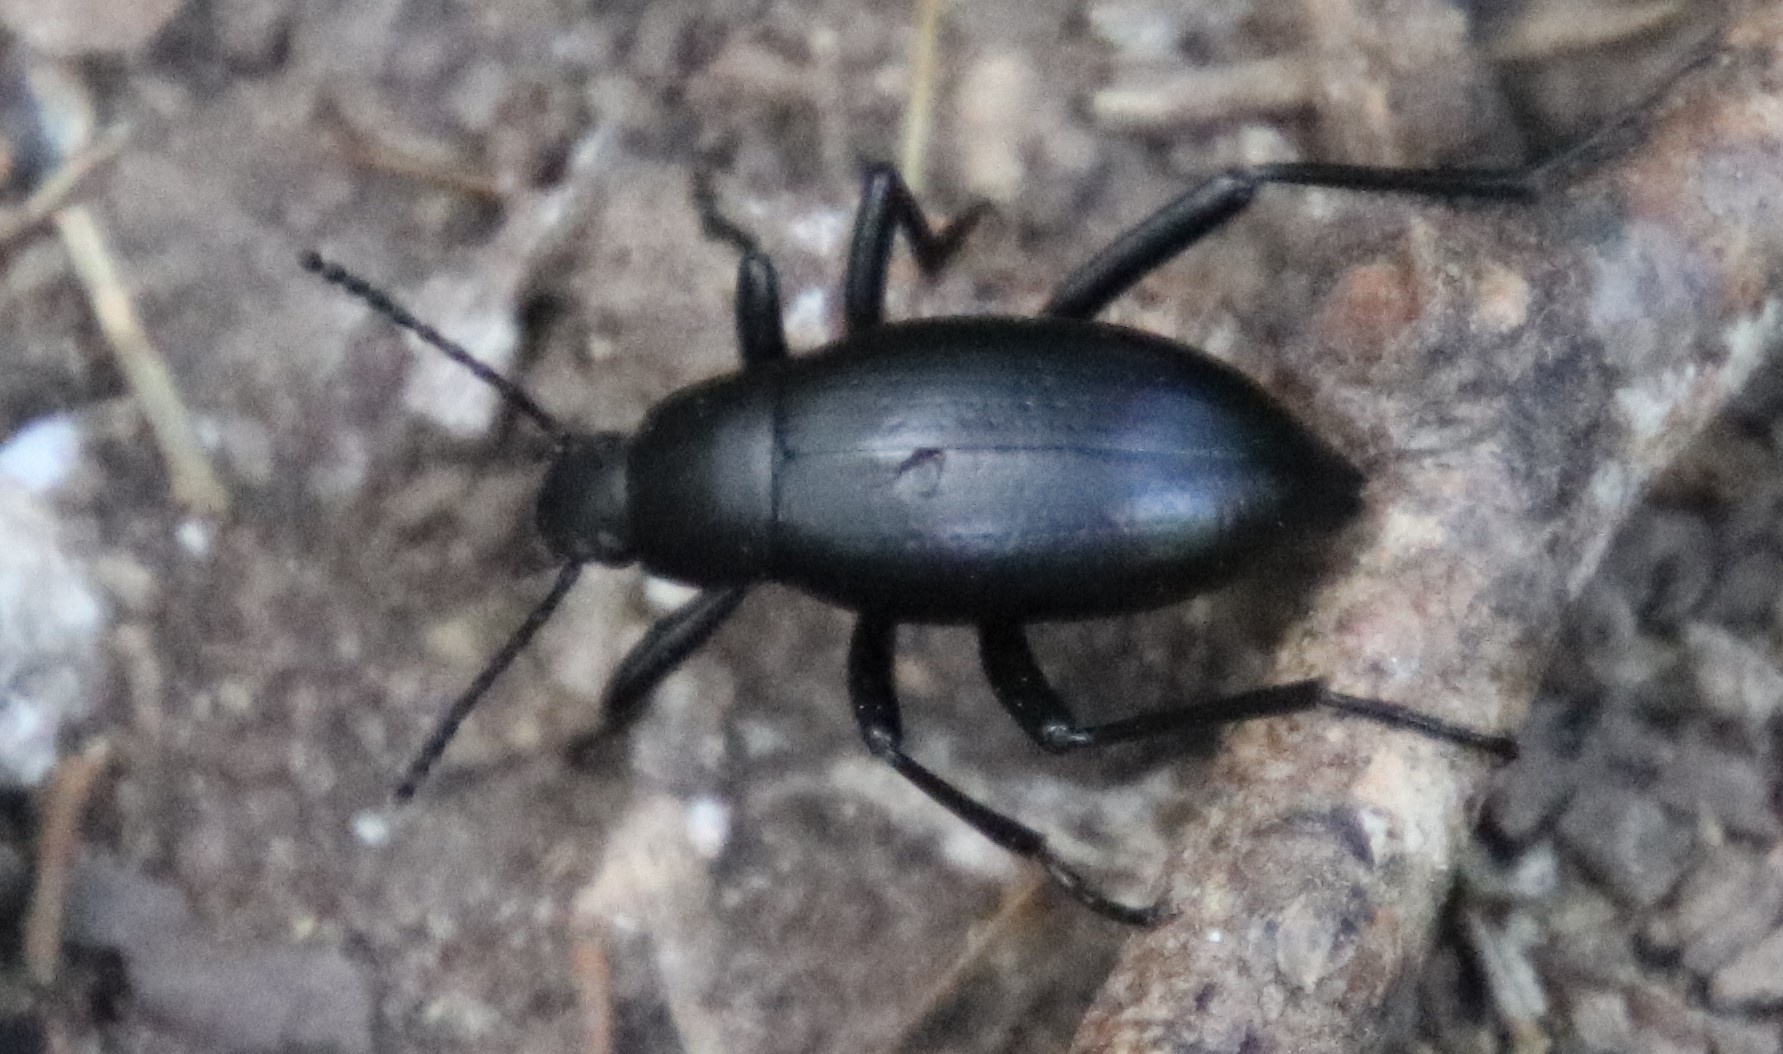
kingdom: Animalia
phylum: Arthropoda
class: Insecta
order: Coleoptera
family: Tenebrionidae
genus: Eleodes
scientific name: Eleodes goryi
